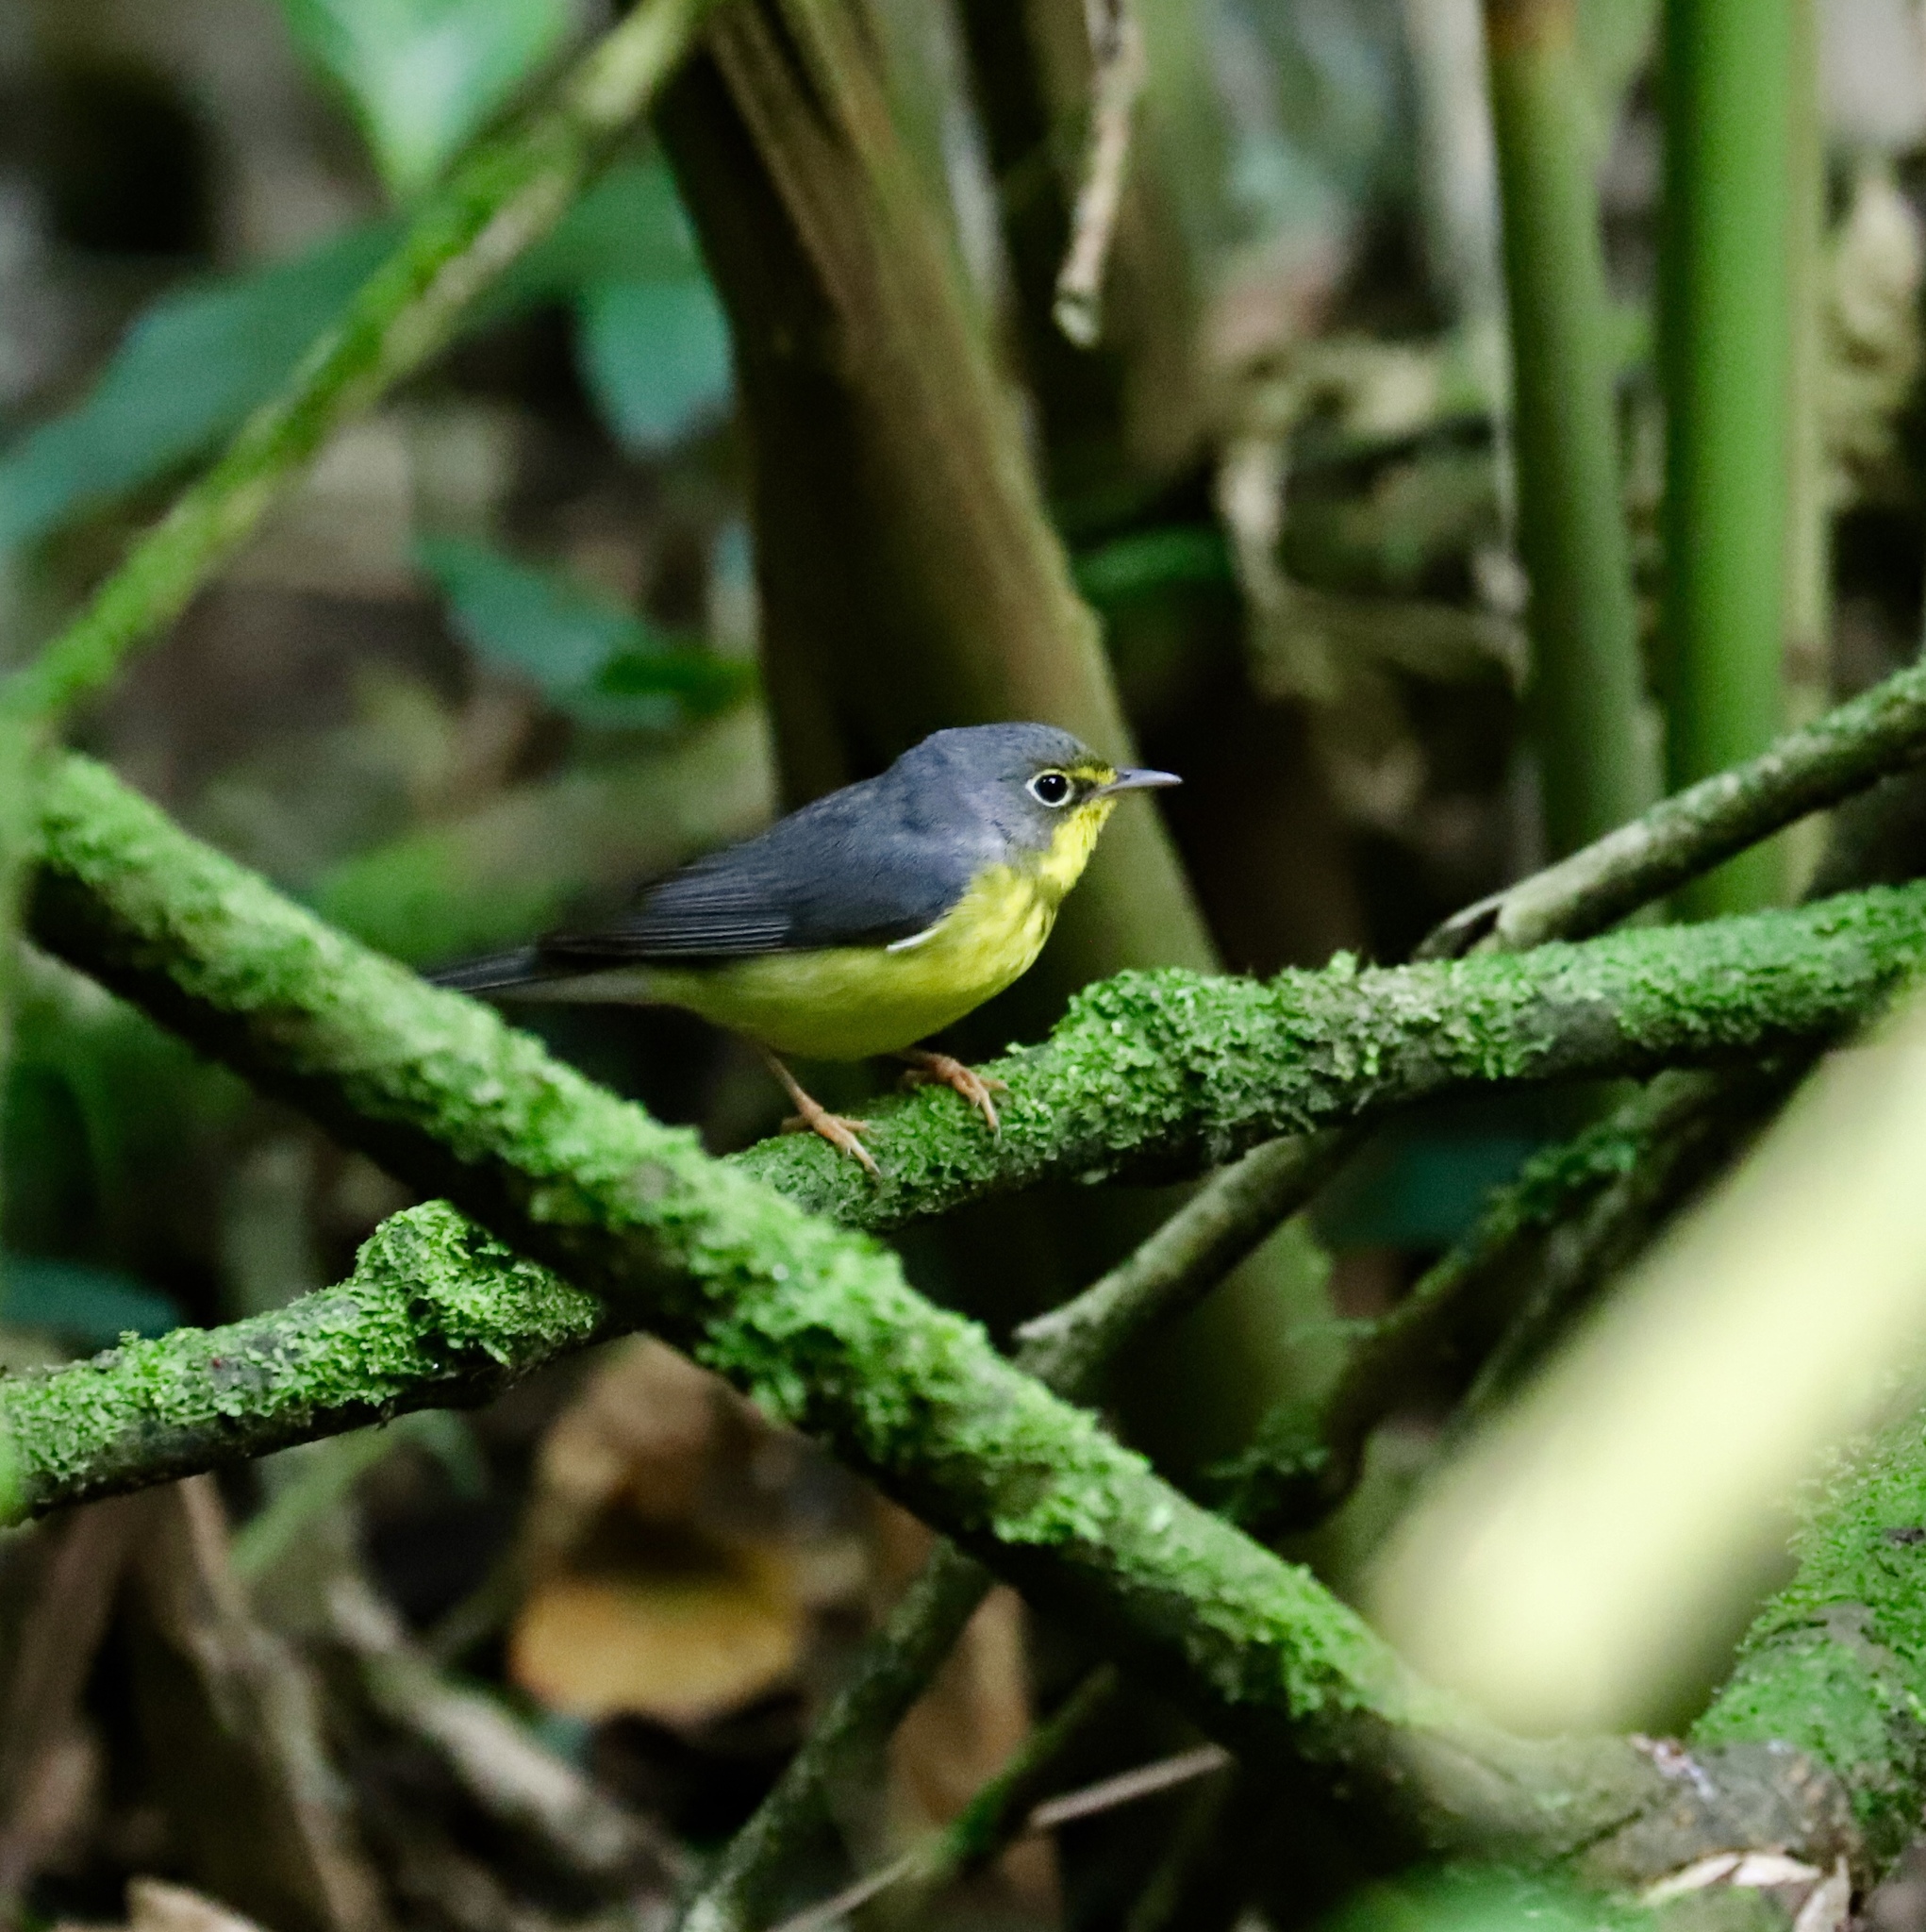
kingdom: Animalia
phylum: Chordata
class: Aves
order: Passeriformes
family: Parulidae
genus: Cardellina
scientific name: Cardellina canadensis
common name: Canada warbler
